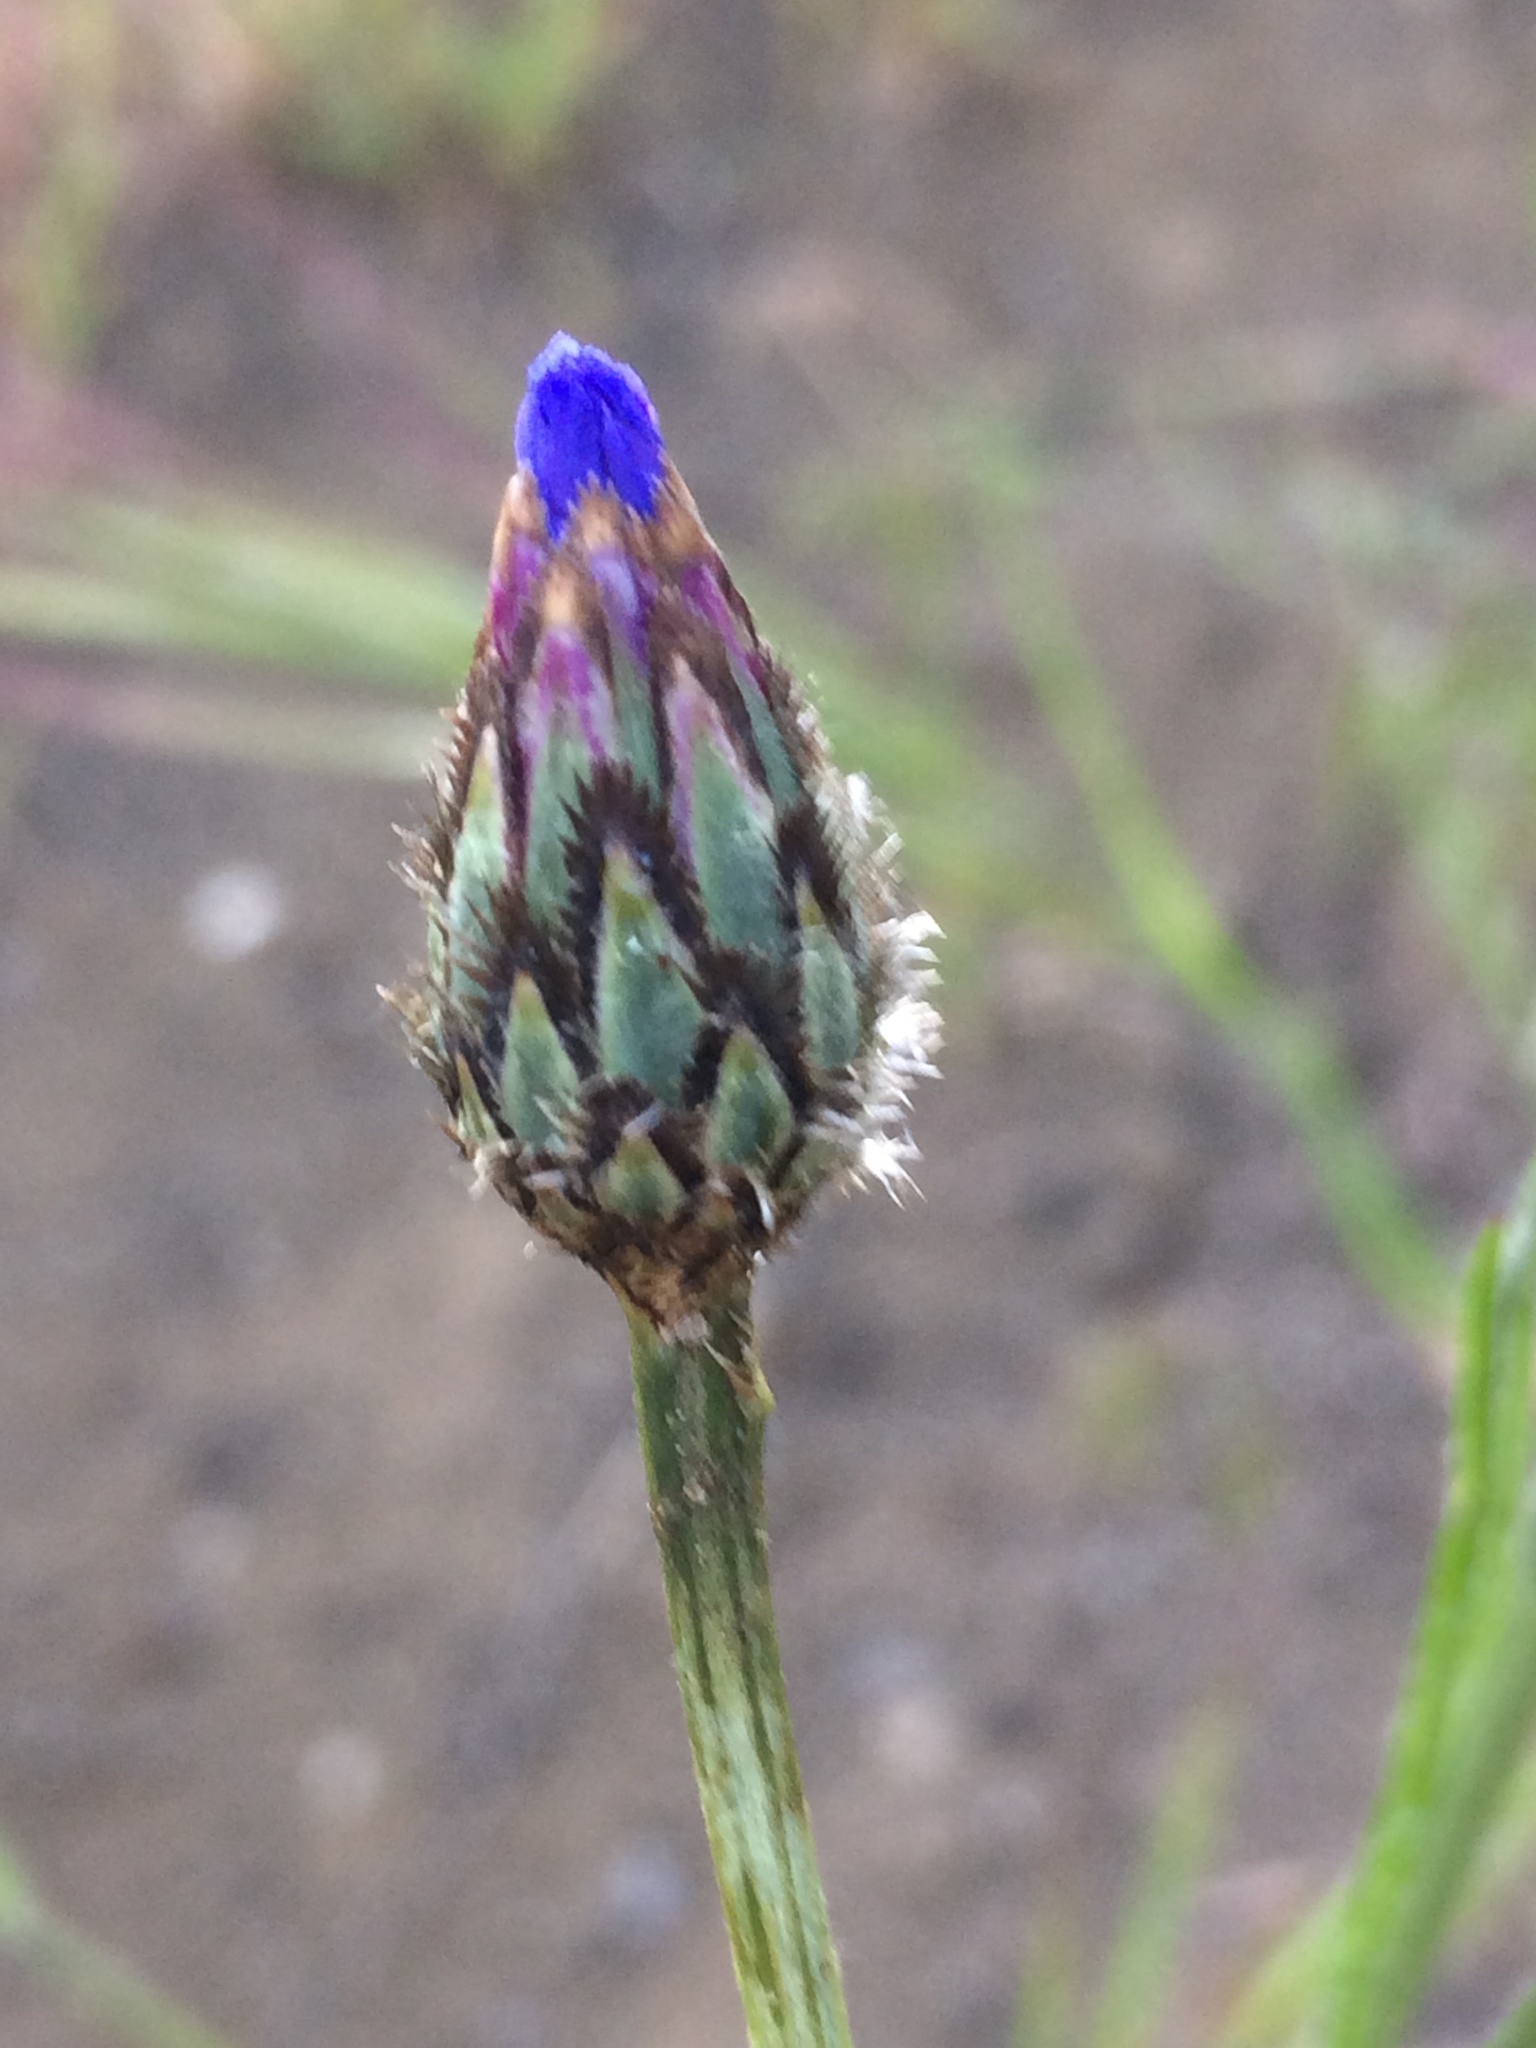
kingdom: Plantae
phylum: Tracheophyta
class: Magnoliopsida
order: Asterales
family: Asteraceae
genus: Centaurea
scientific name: Centaurea cyanus
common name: Cornflower
